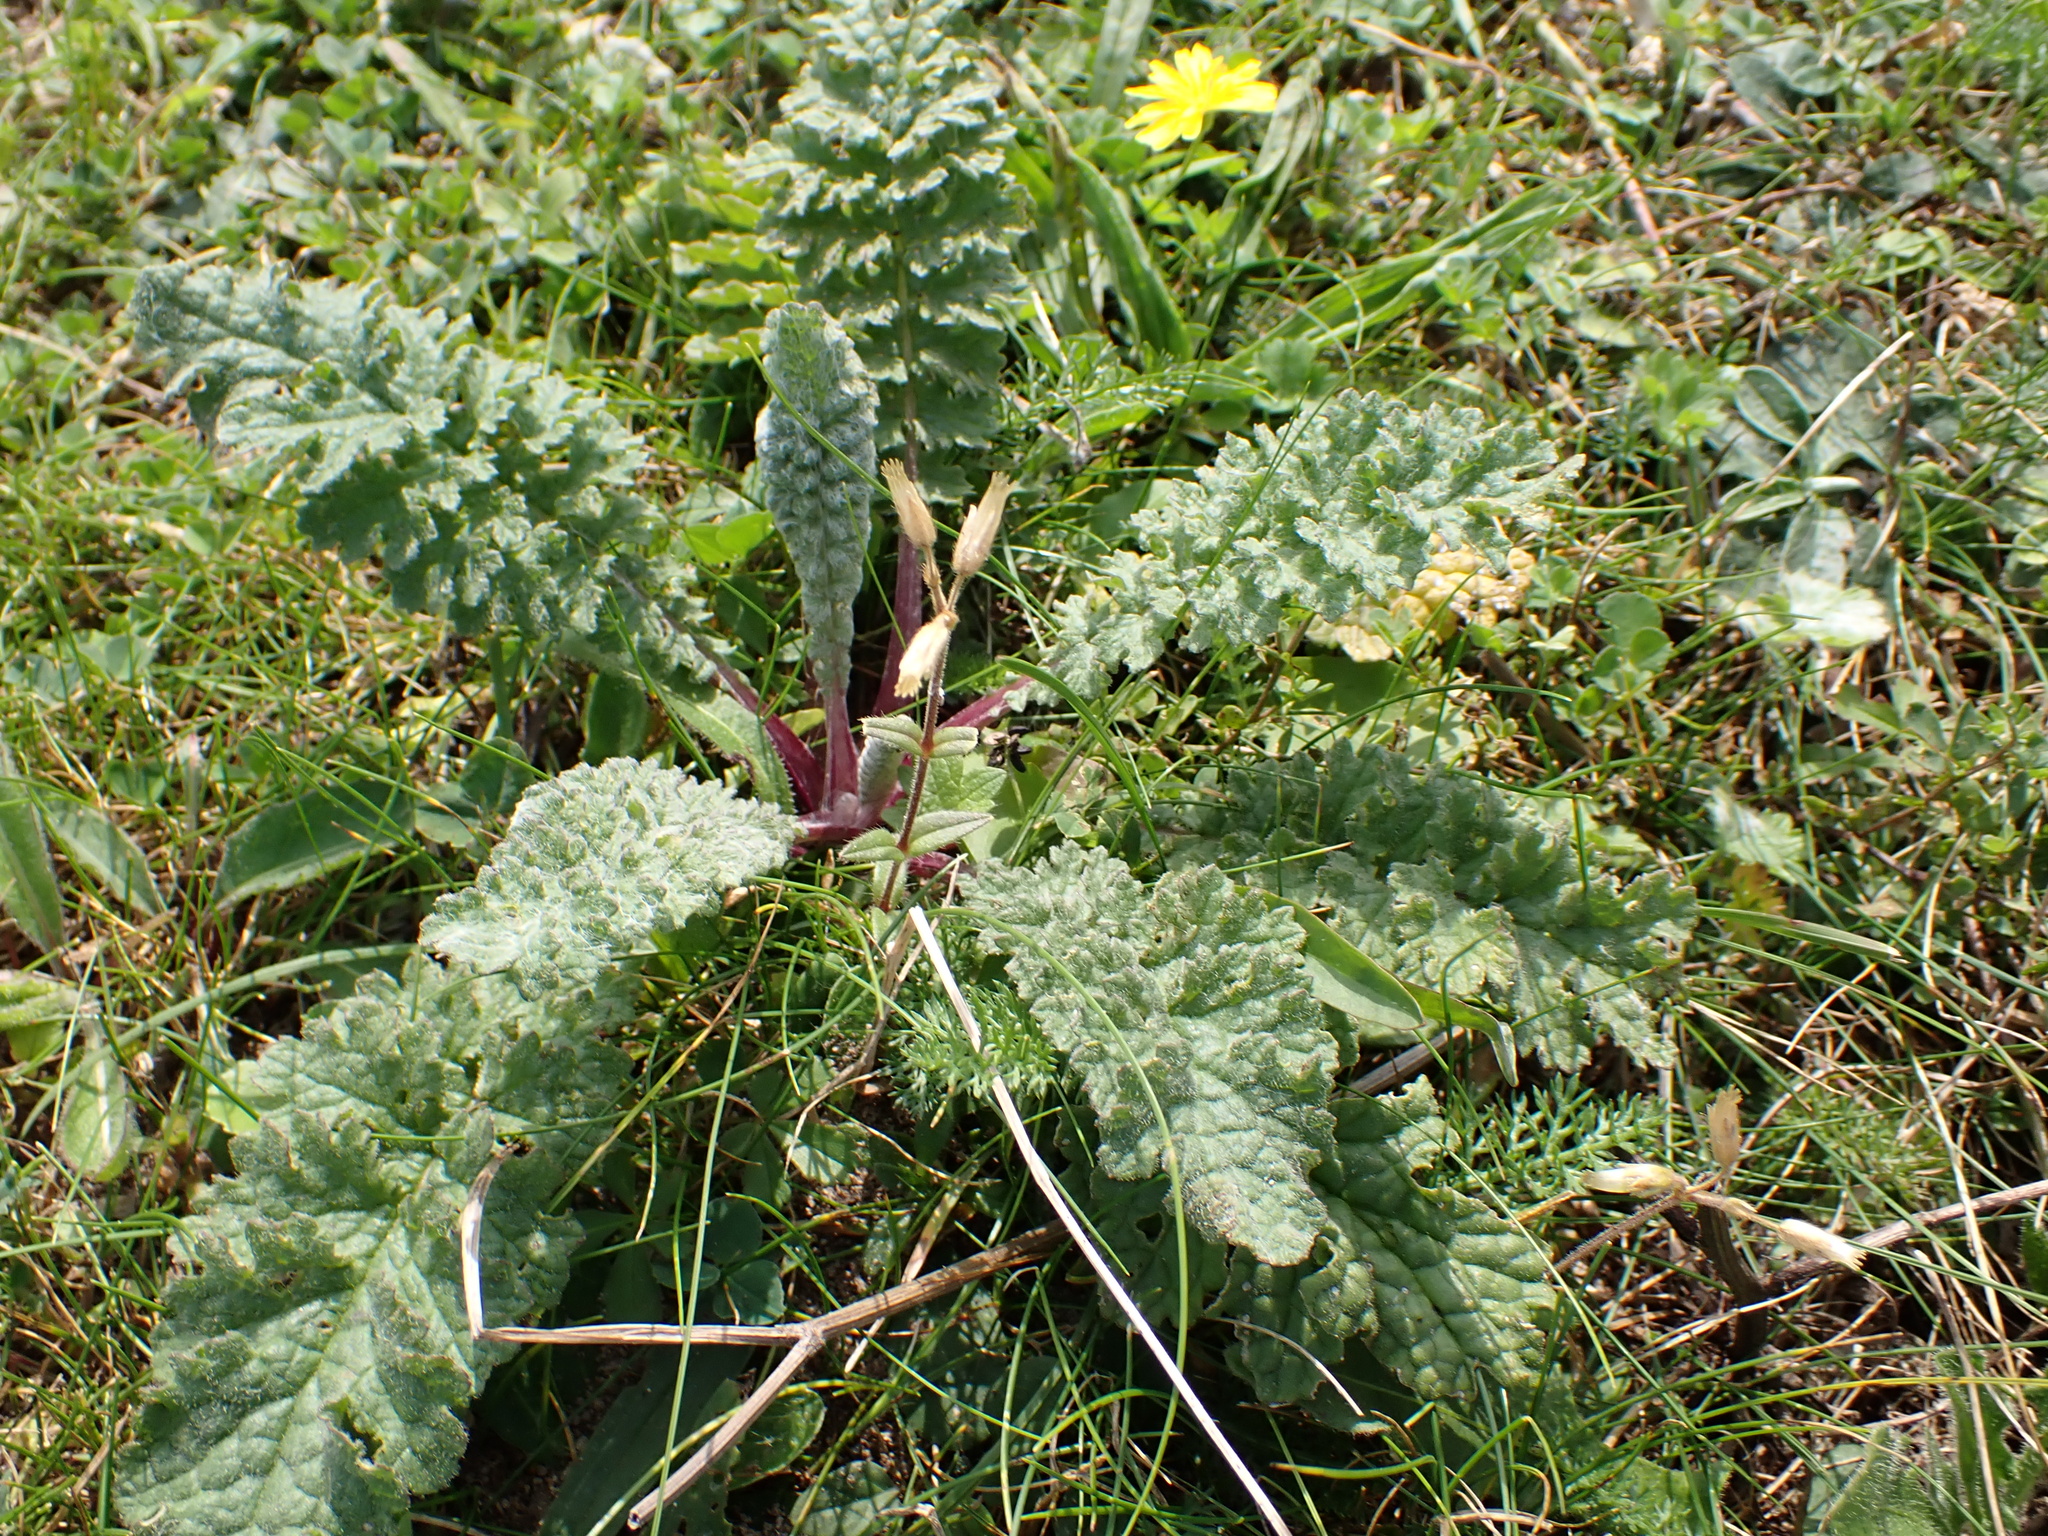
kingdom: Plantae
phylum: Tracheophyta
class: Magnoliopsida
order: Asterales
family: Asteraceae
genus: Jacobaea
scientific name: Jacobaea vulgaris
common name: Stinking willie
